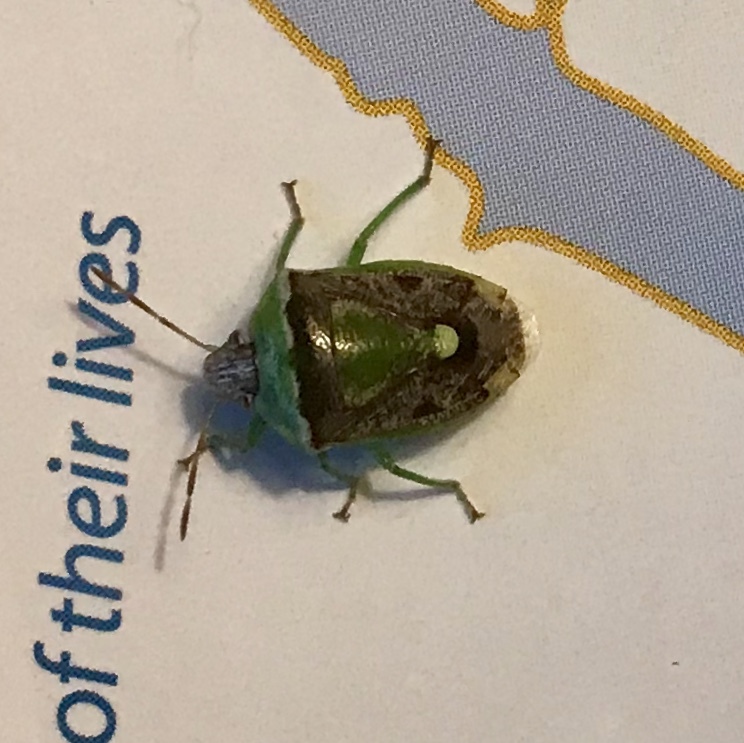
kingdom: Animalia
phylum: Arthropoda
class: Insecta
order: Hemiptera
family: Pentatomidae
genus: Banasa
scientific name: Banasa dimidiata
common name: Green burgundy stink bug
